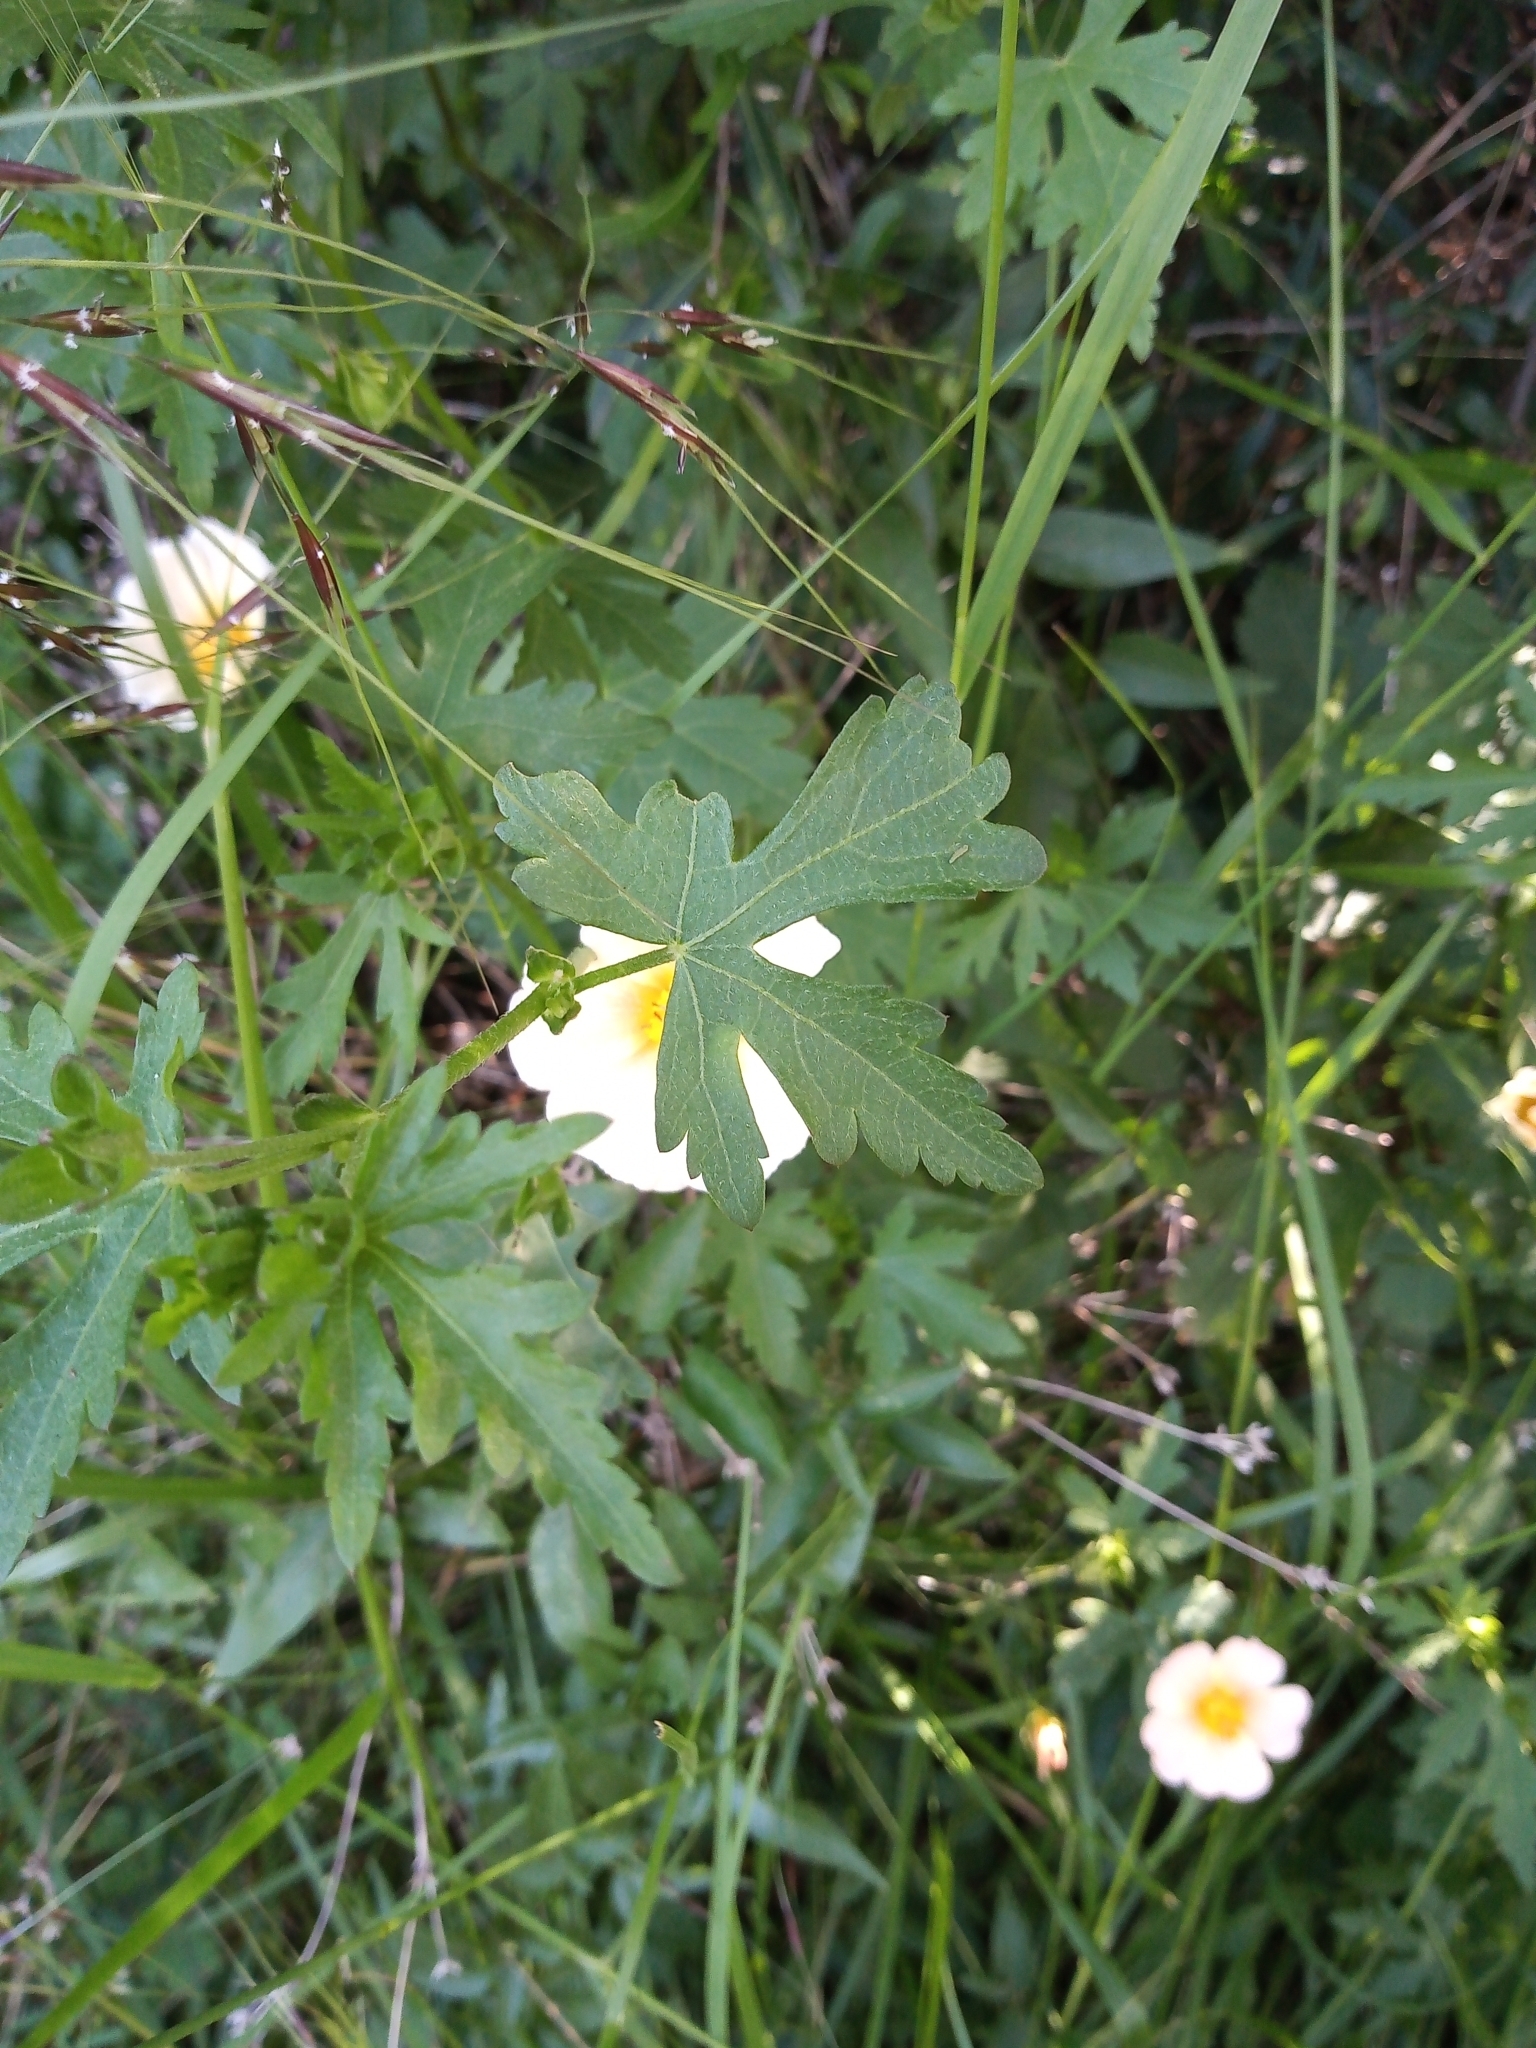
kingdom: Plantae
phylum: Tracheophyta
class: Magnoliopsida
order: Malvales
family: Malvaceae
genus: Modiolastrum
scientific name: Modiolastrum malvifolium
